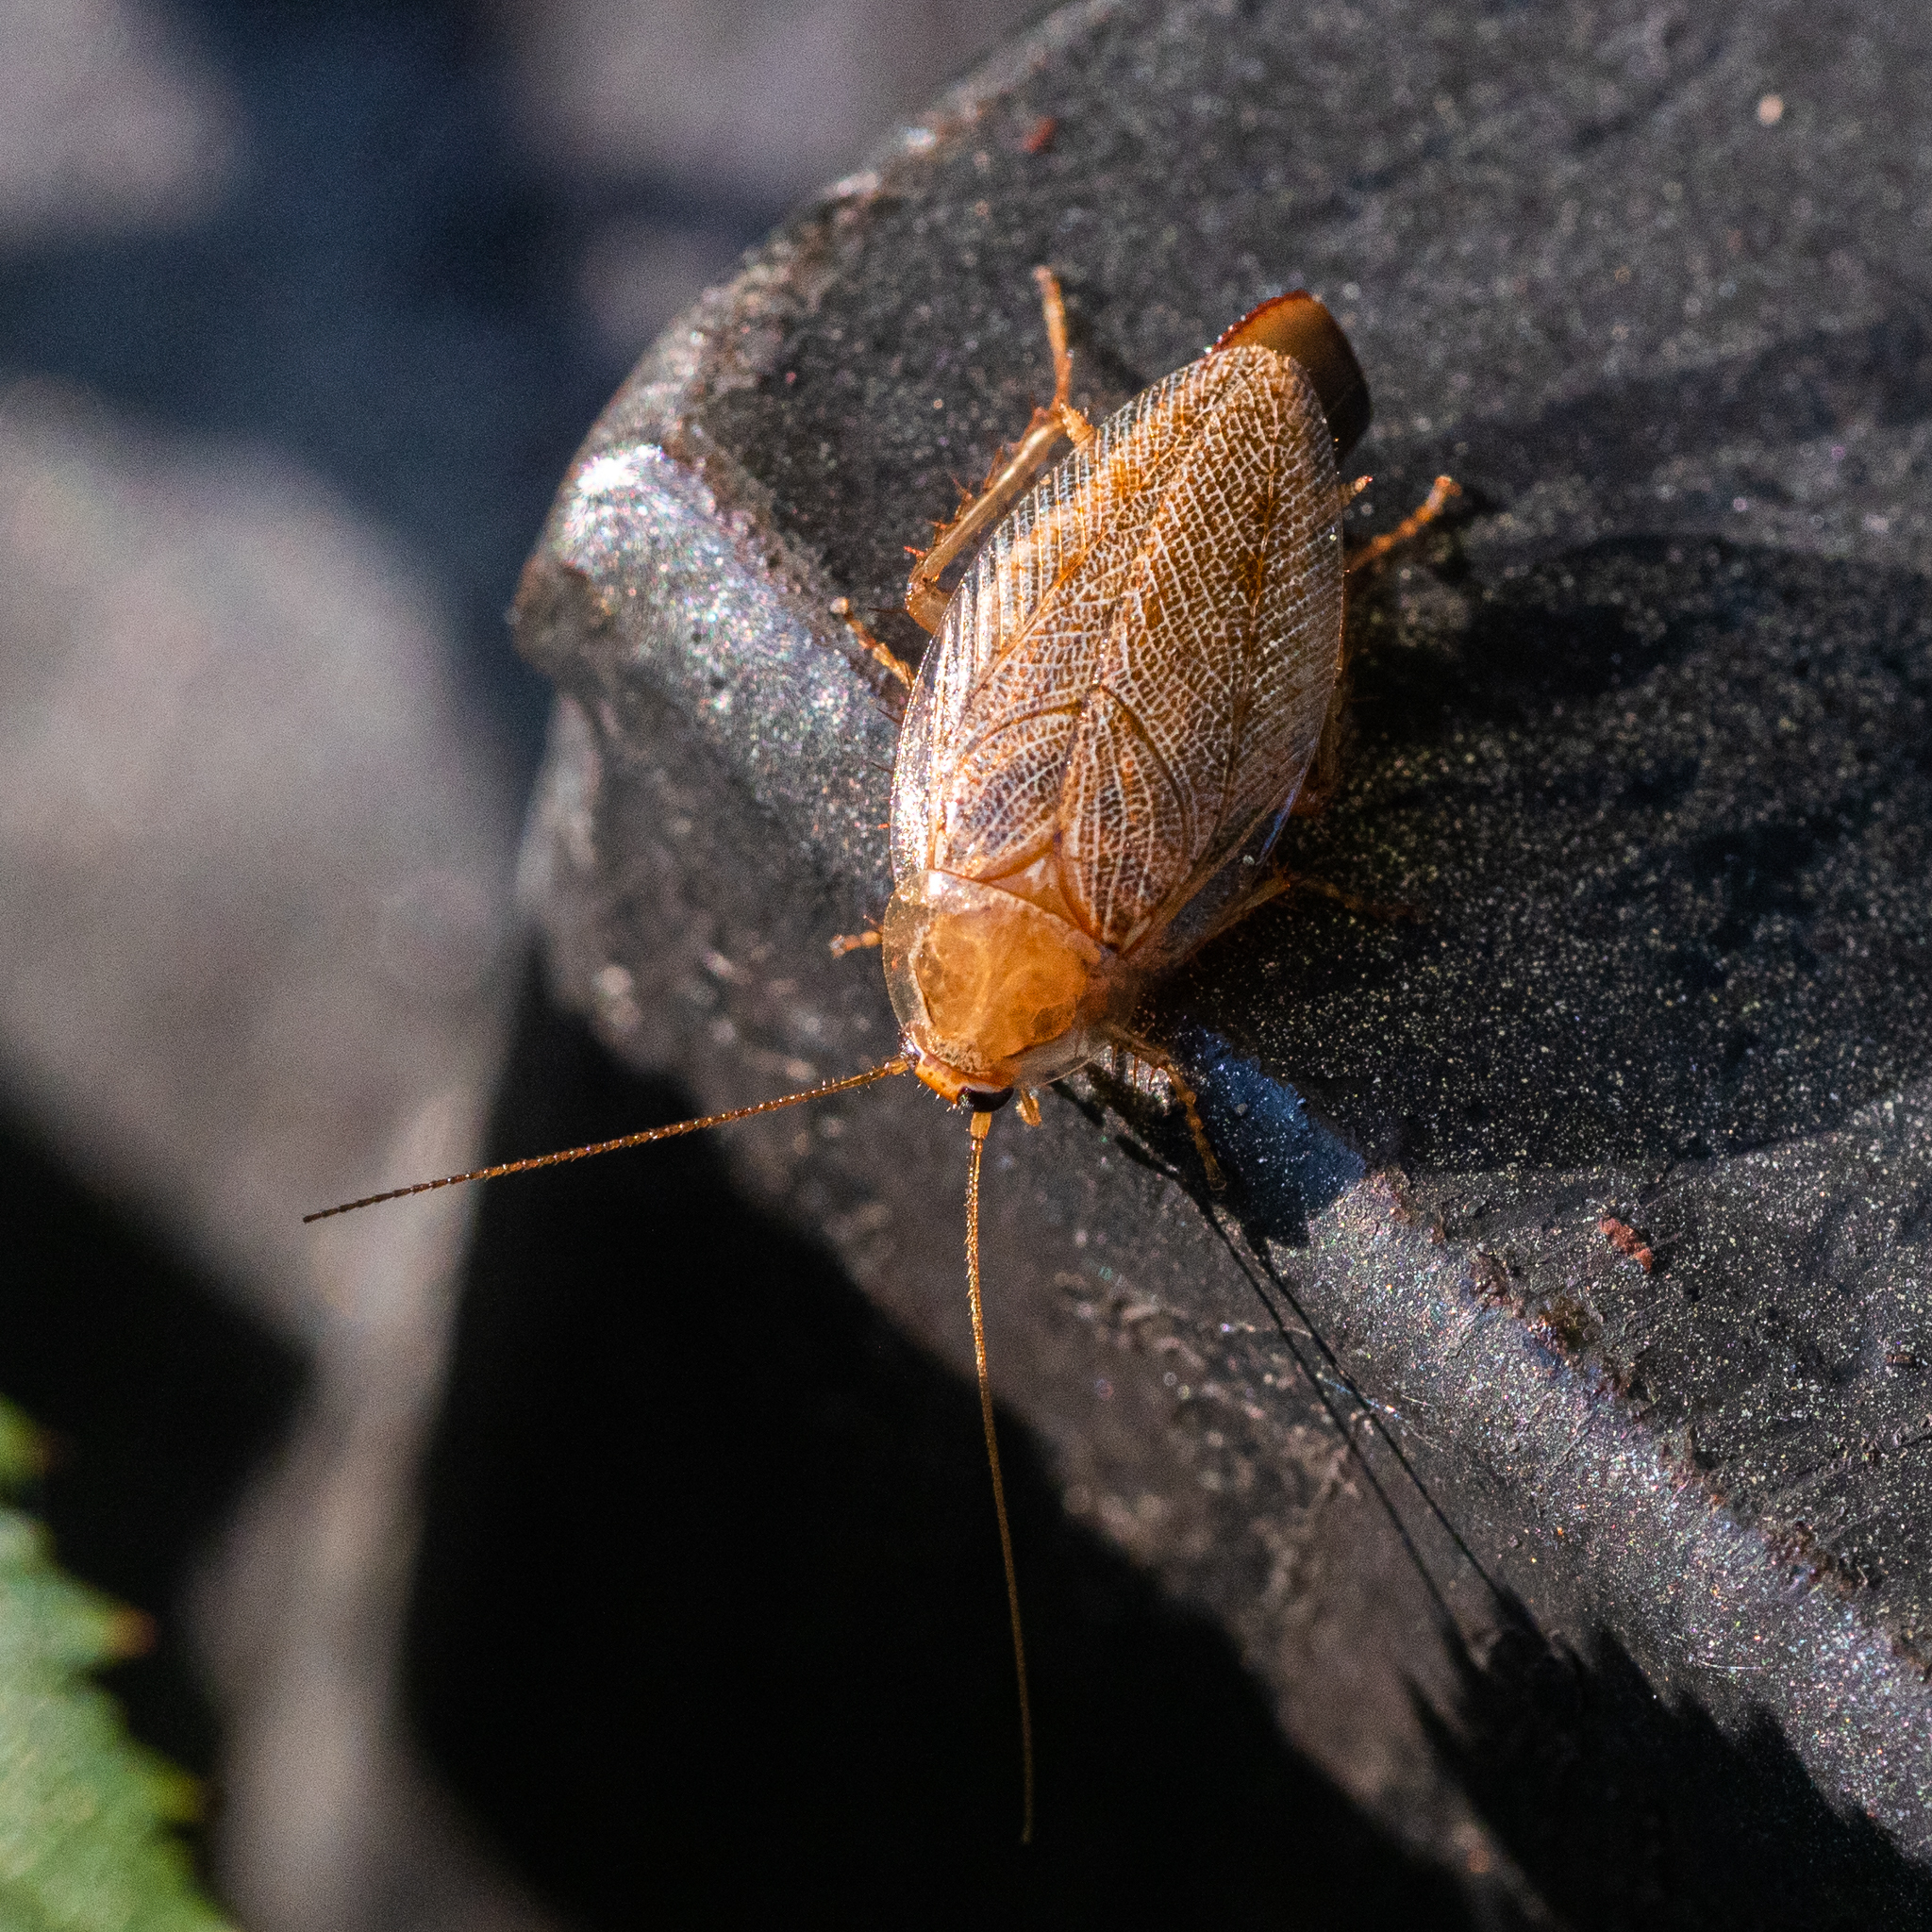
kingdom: Animalia
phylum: Arthropoda
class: Insecta
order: Blattodea
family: Ectobiidae
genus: Ectobius
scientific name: Ectobius vittiventris
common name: Garden cockroach
